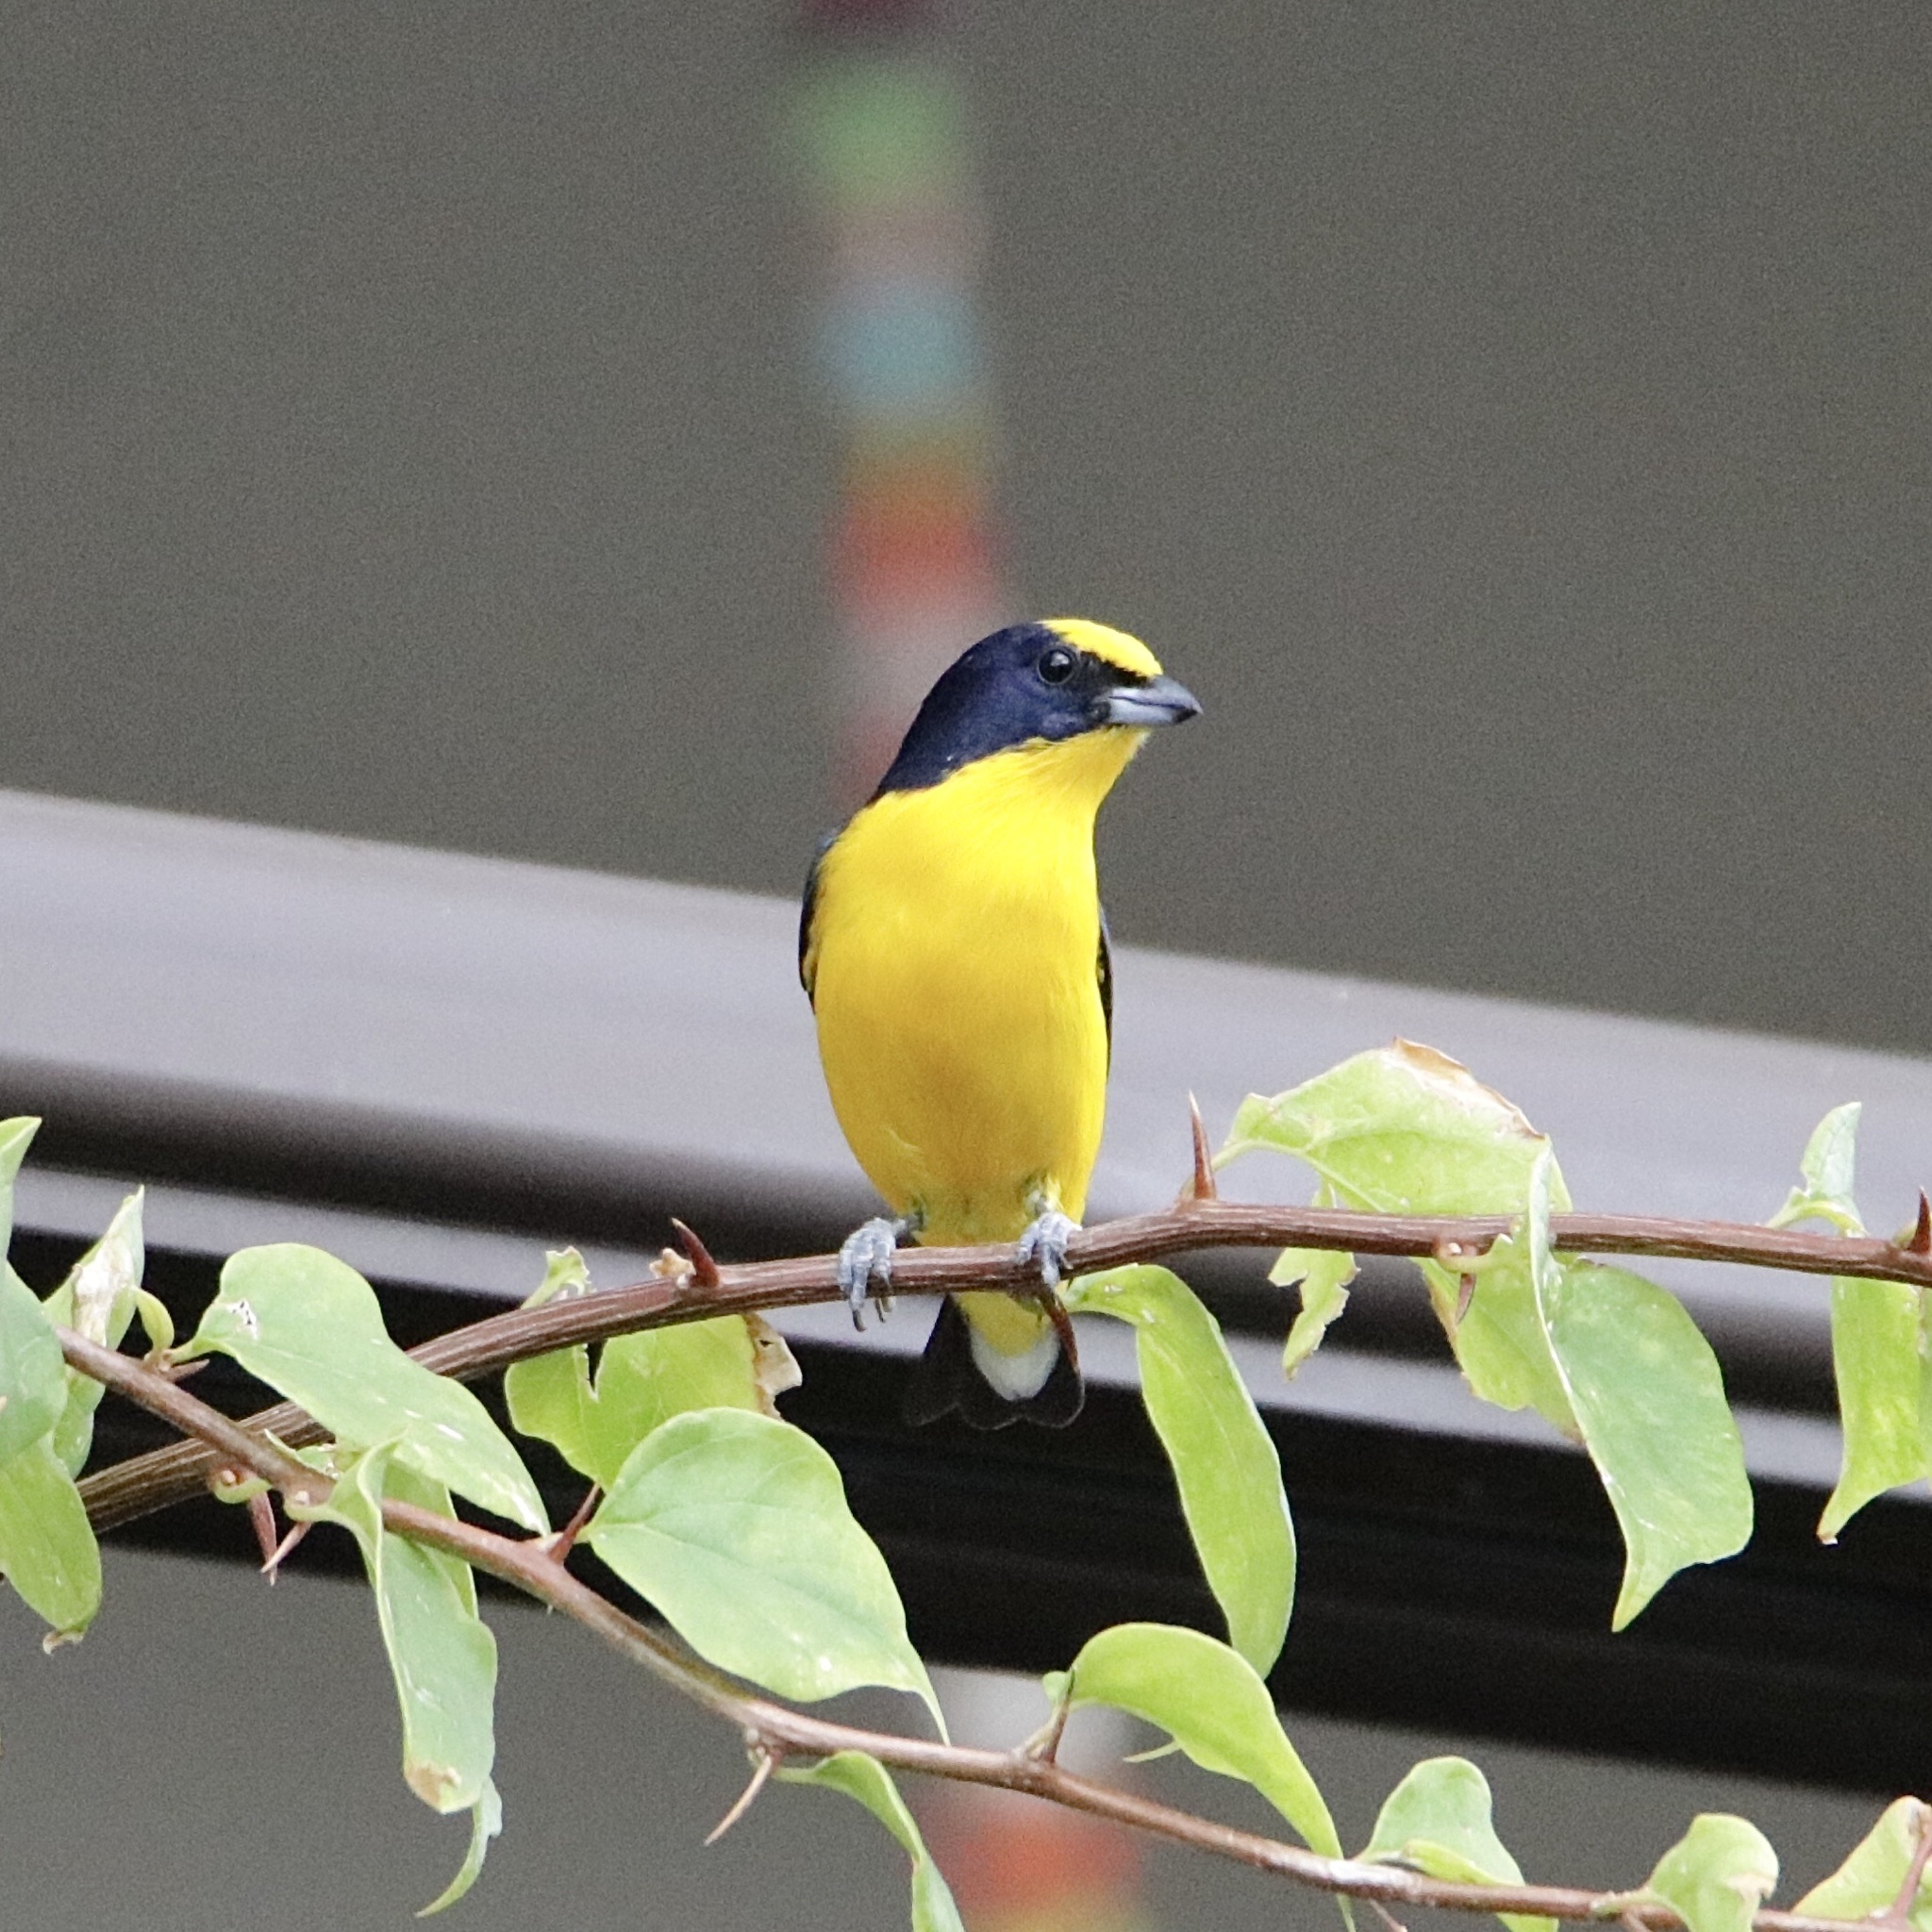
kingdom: Animalia
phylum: Chordata
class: Aves
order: Passeriformes
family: Fringillidae
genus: Euphonia
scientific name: Euphonia laniirostris
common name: Thick-billed euphonia
